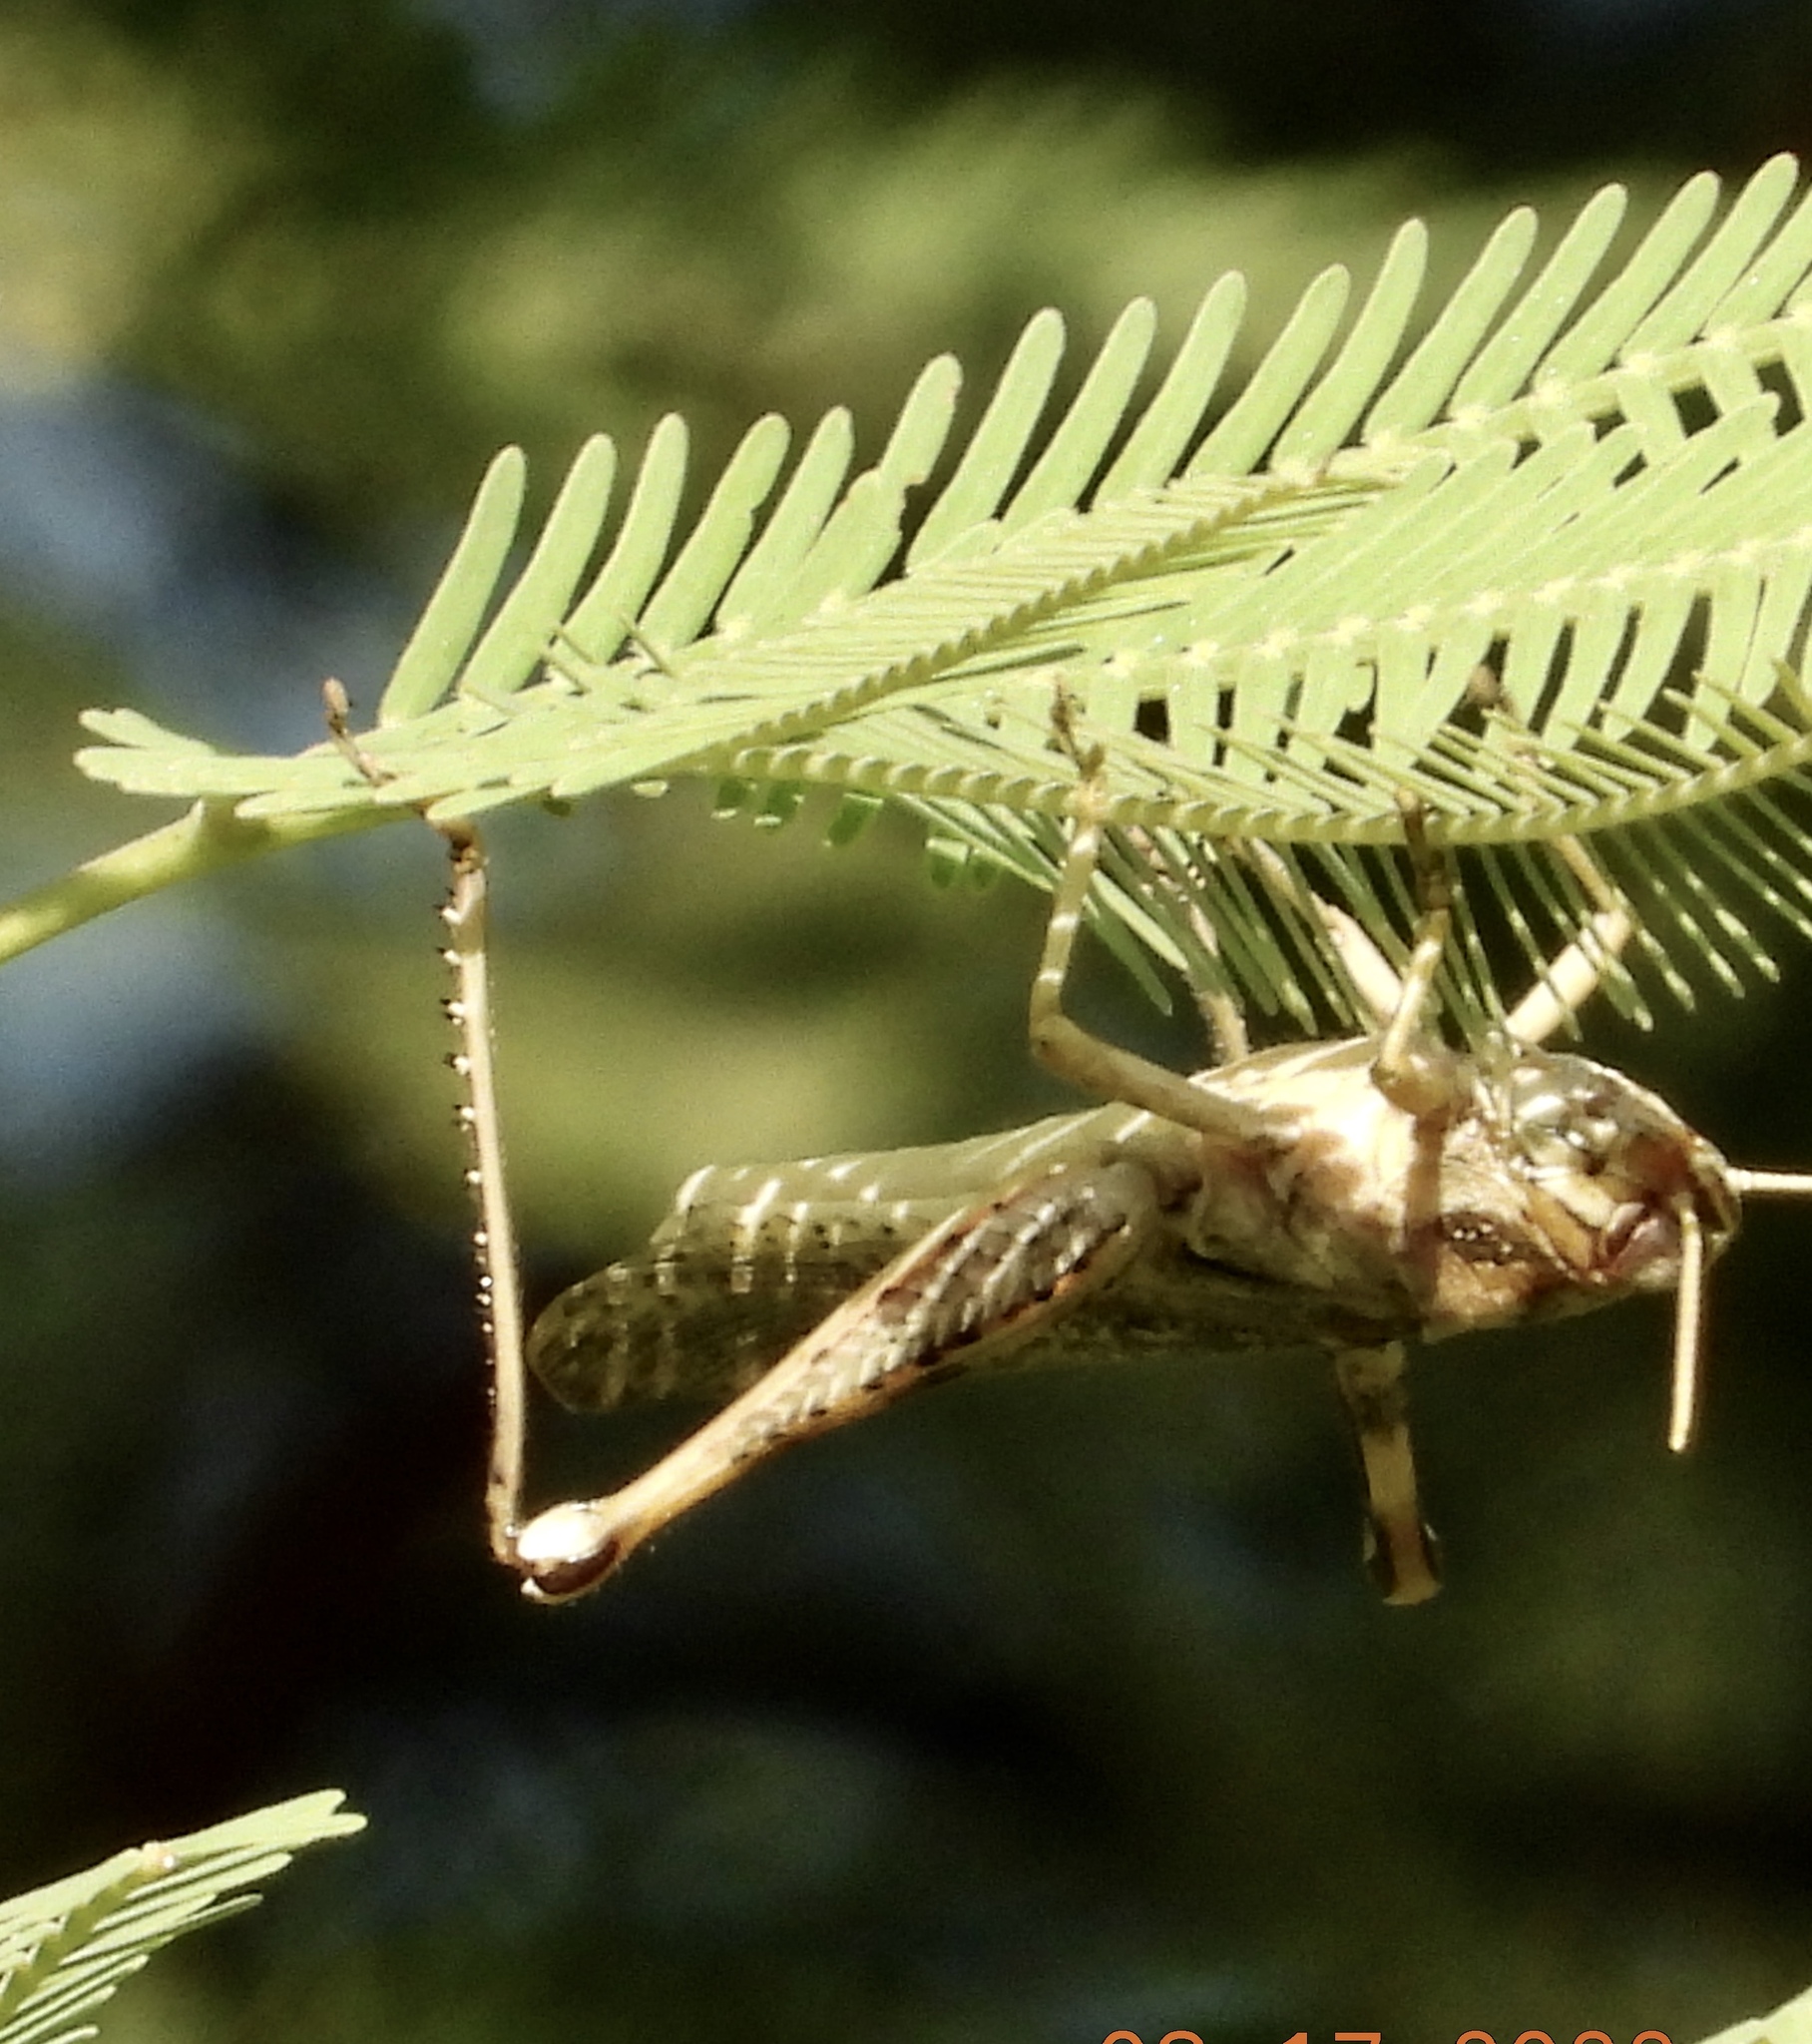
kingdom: Animalia
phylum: Arthropoda
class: Insecta
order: Orthoptera
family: Acrididae
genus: Schistocerca
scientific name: Schistocerca nitens
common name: Vagrant grasshopper
